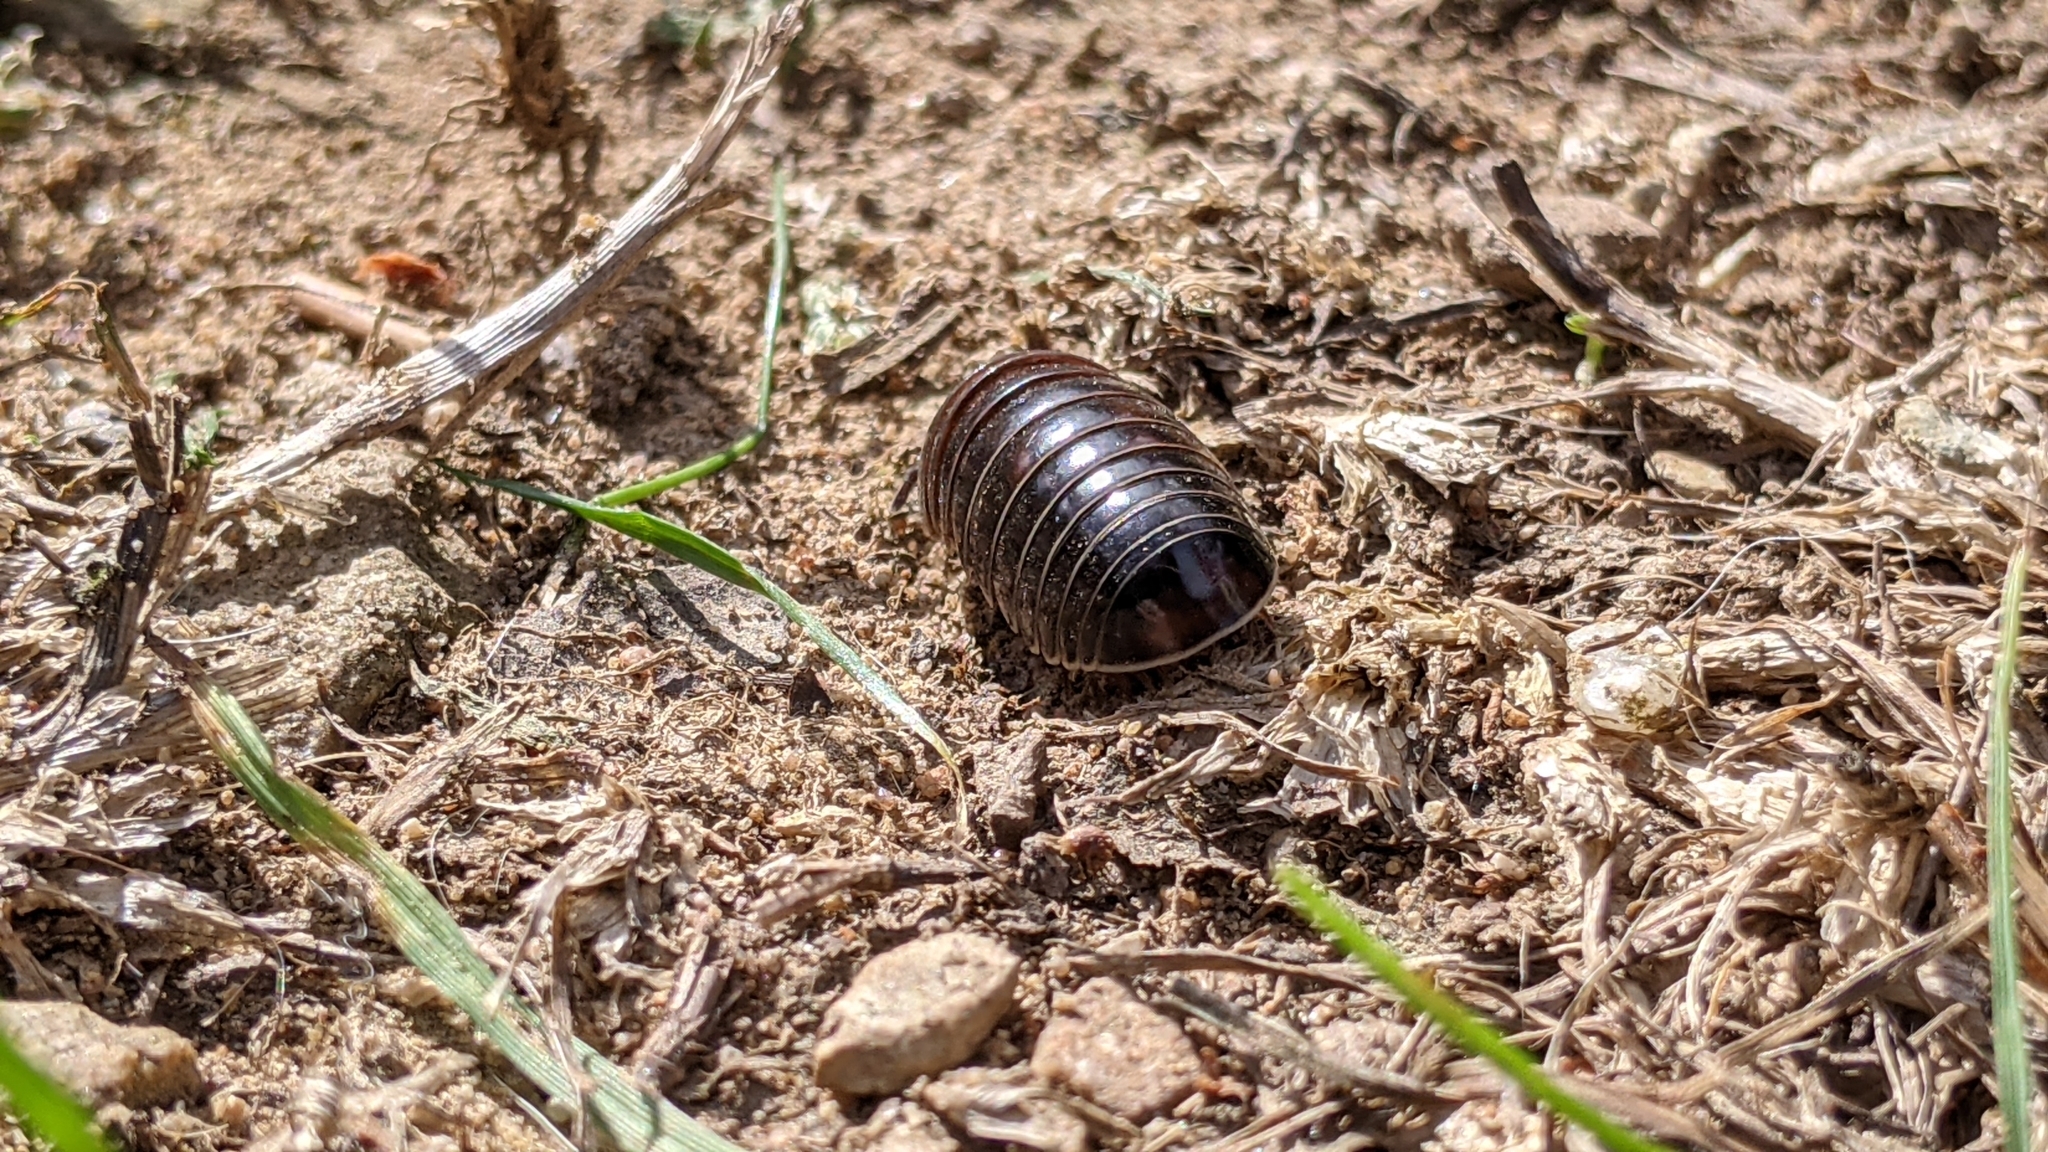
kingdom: Animalia
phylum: Arthropoda
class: Diplopoda
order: Glomerida
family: Glomeridae
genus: Glomeris
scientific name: Glomeris romana
